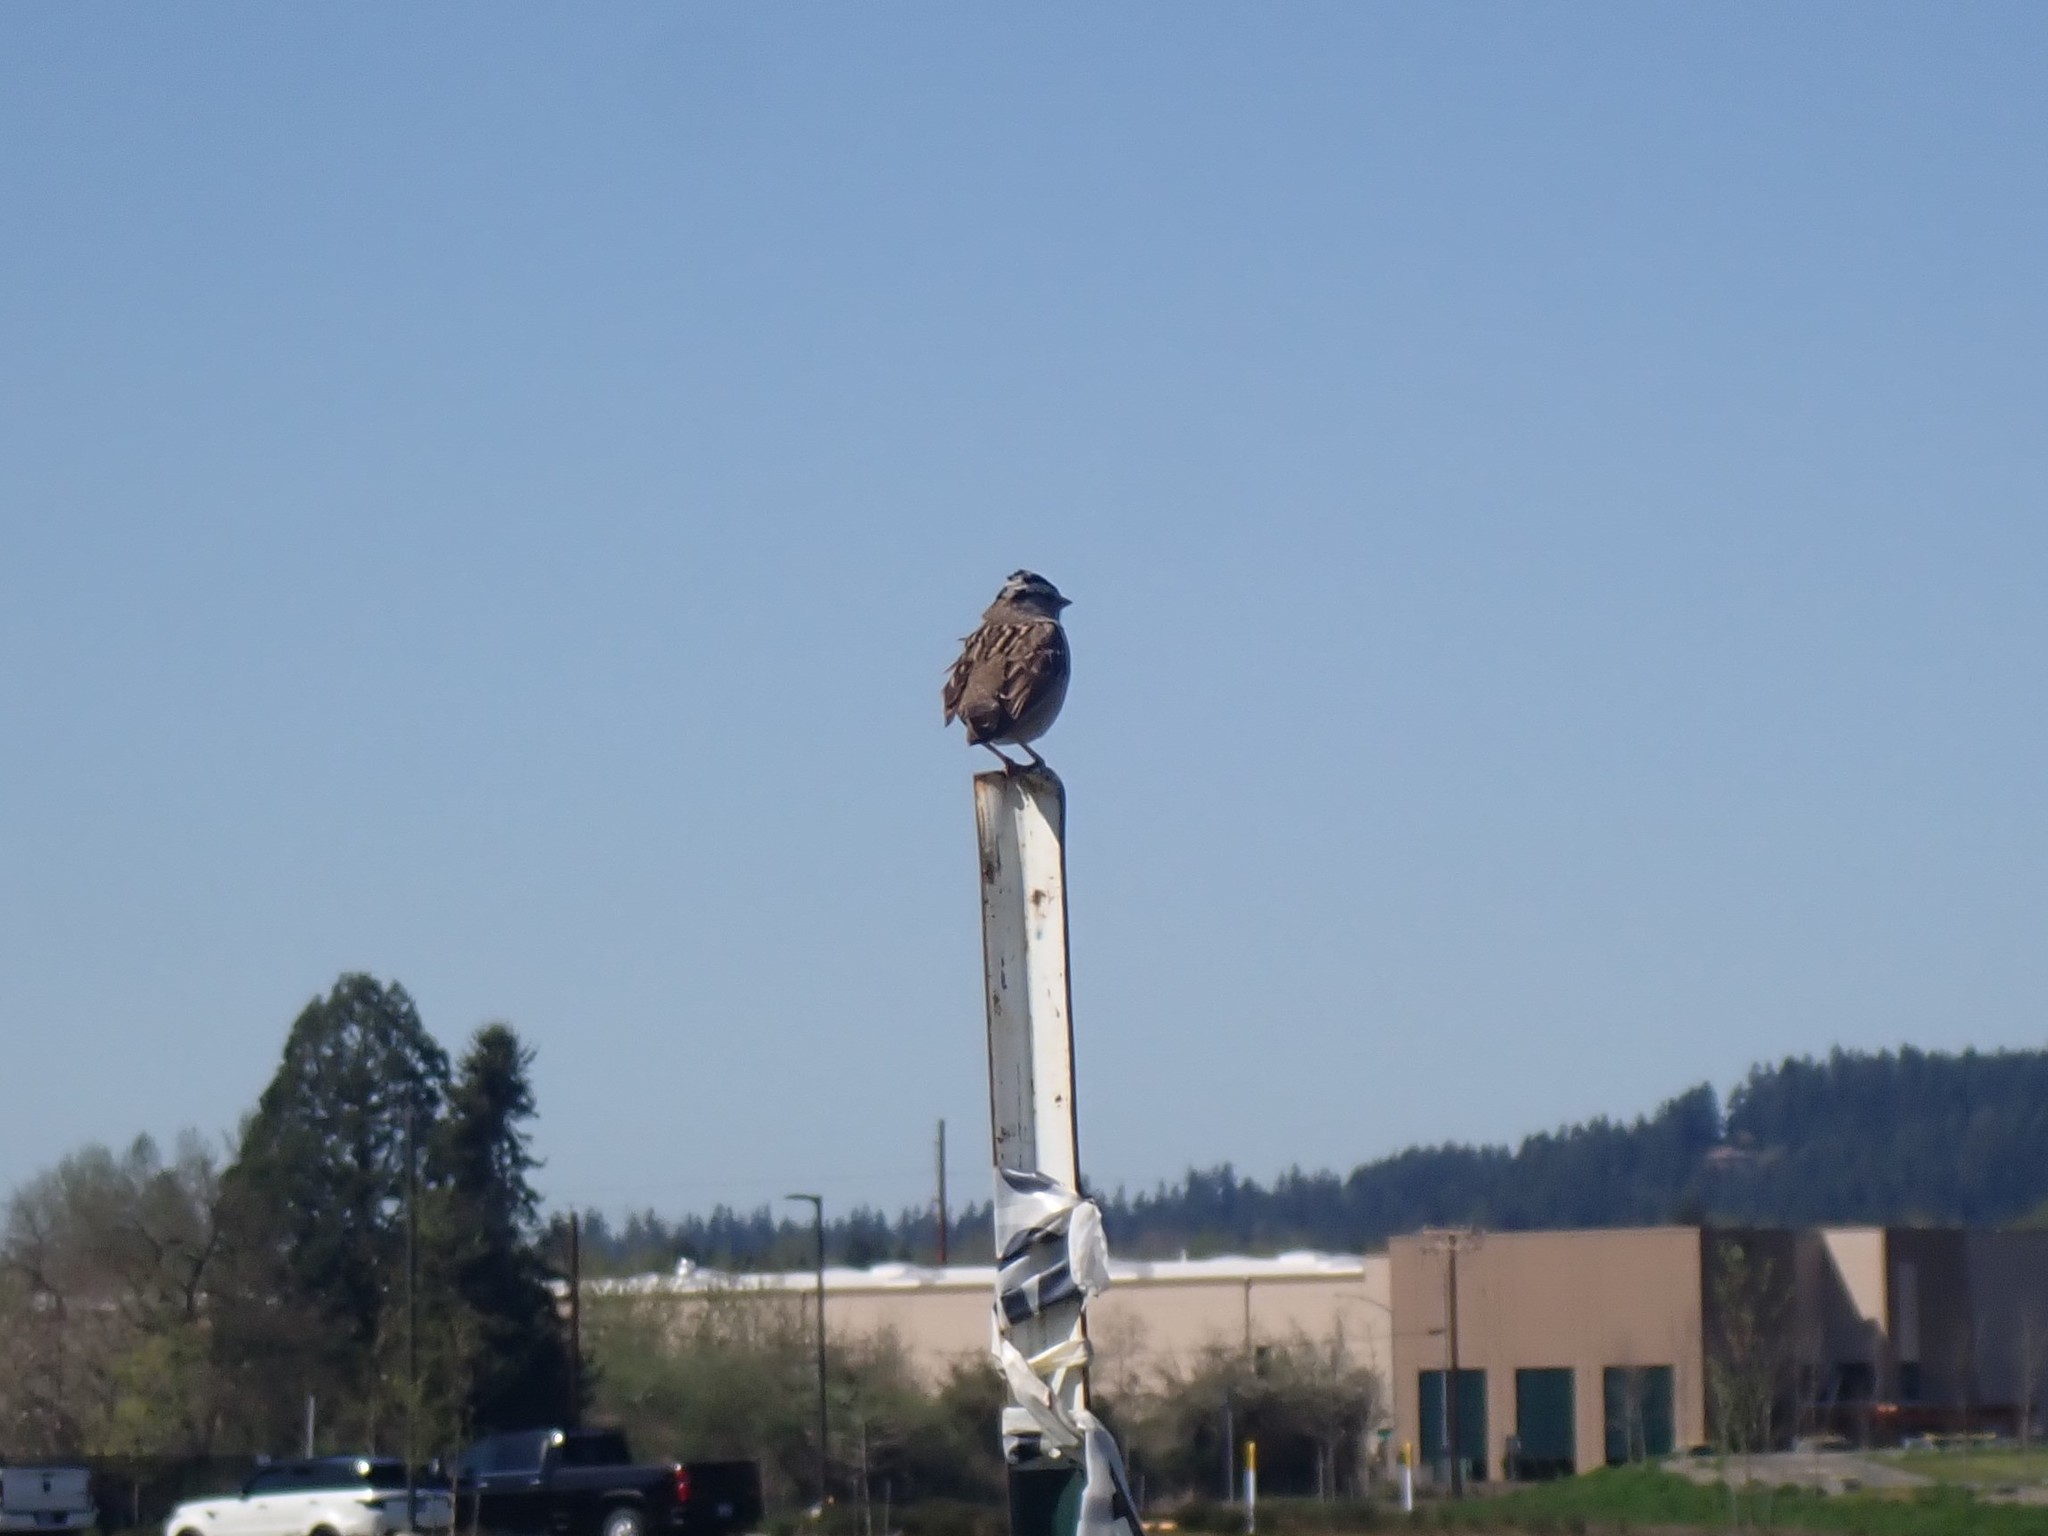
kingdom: Animalia
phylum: Chordata
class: Aves
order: Passeriformes
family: Passerellidae
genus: Zonotrichia
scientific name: Zonotrichia leucophrys
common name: White-crowned sparrow
